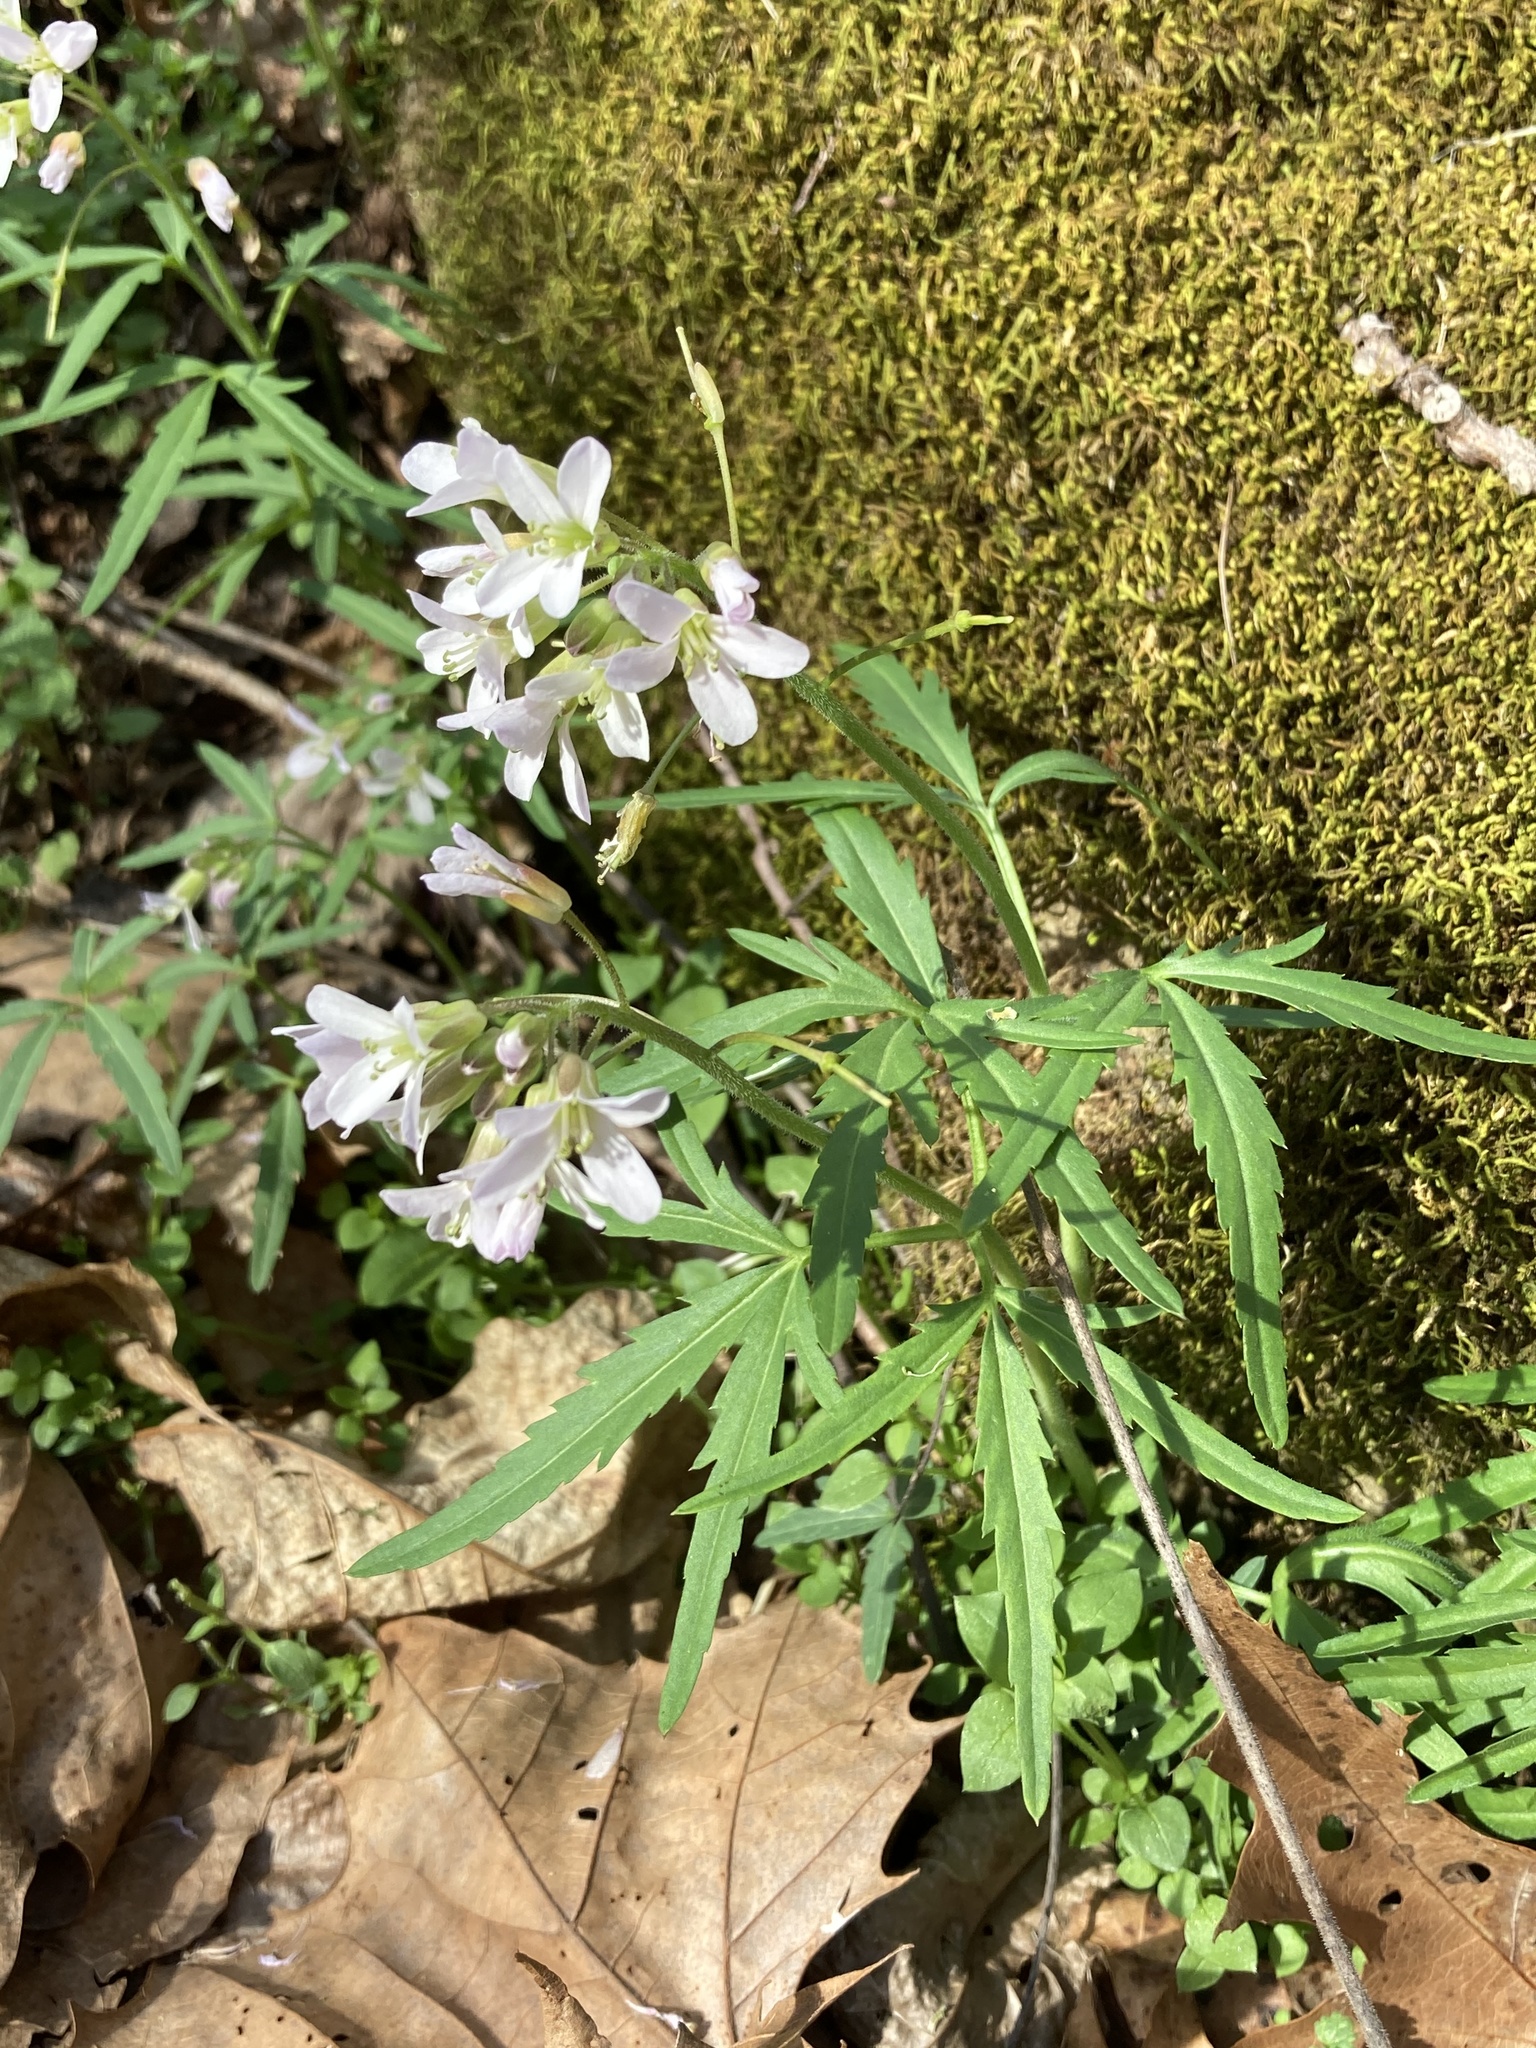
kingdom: Plantae
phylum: Tracheophyta
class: Magnoliopsida
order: Brassicales
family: Brassicaceae
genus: Cardamine
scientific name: Cardamine concatenata
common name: Cut-leaf toothcup
